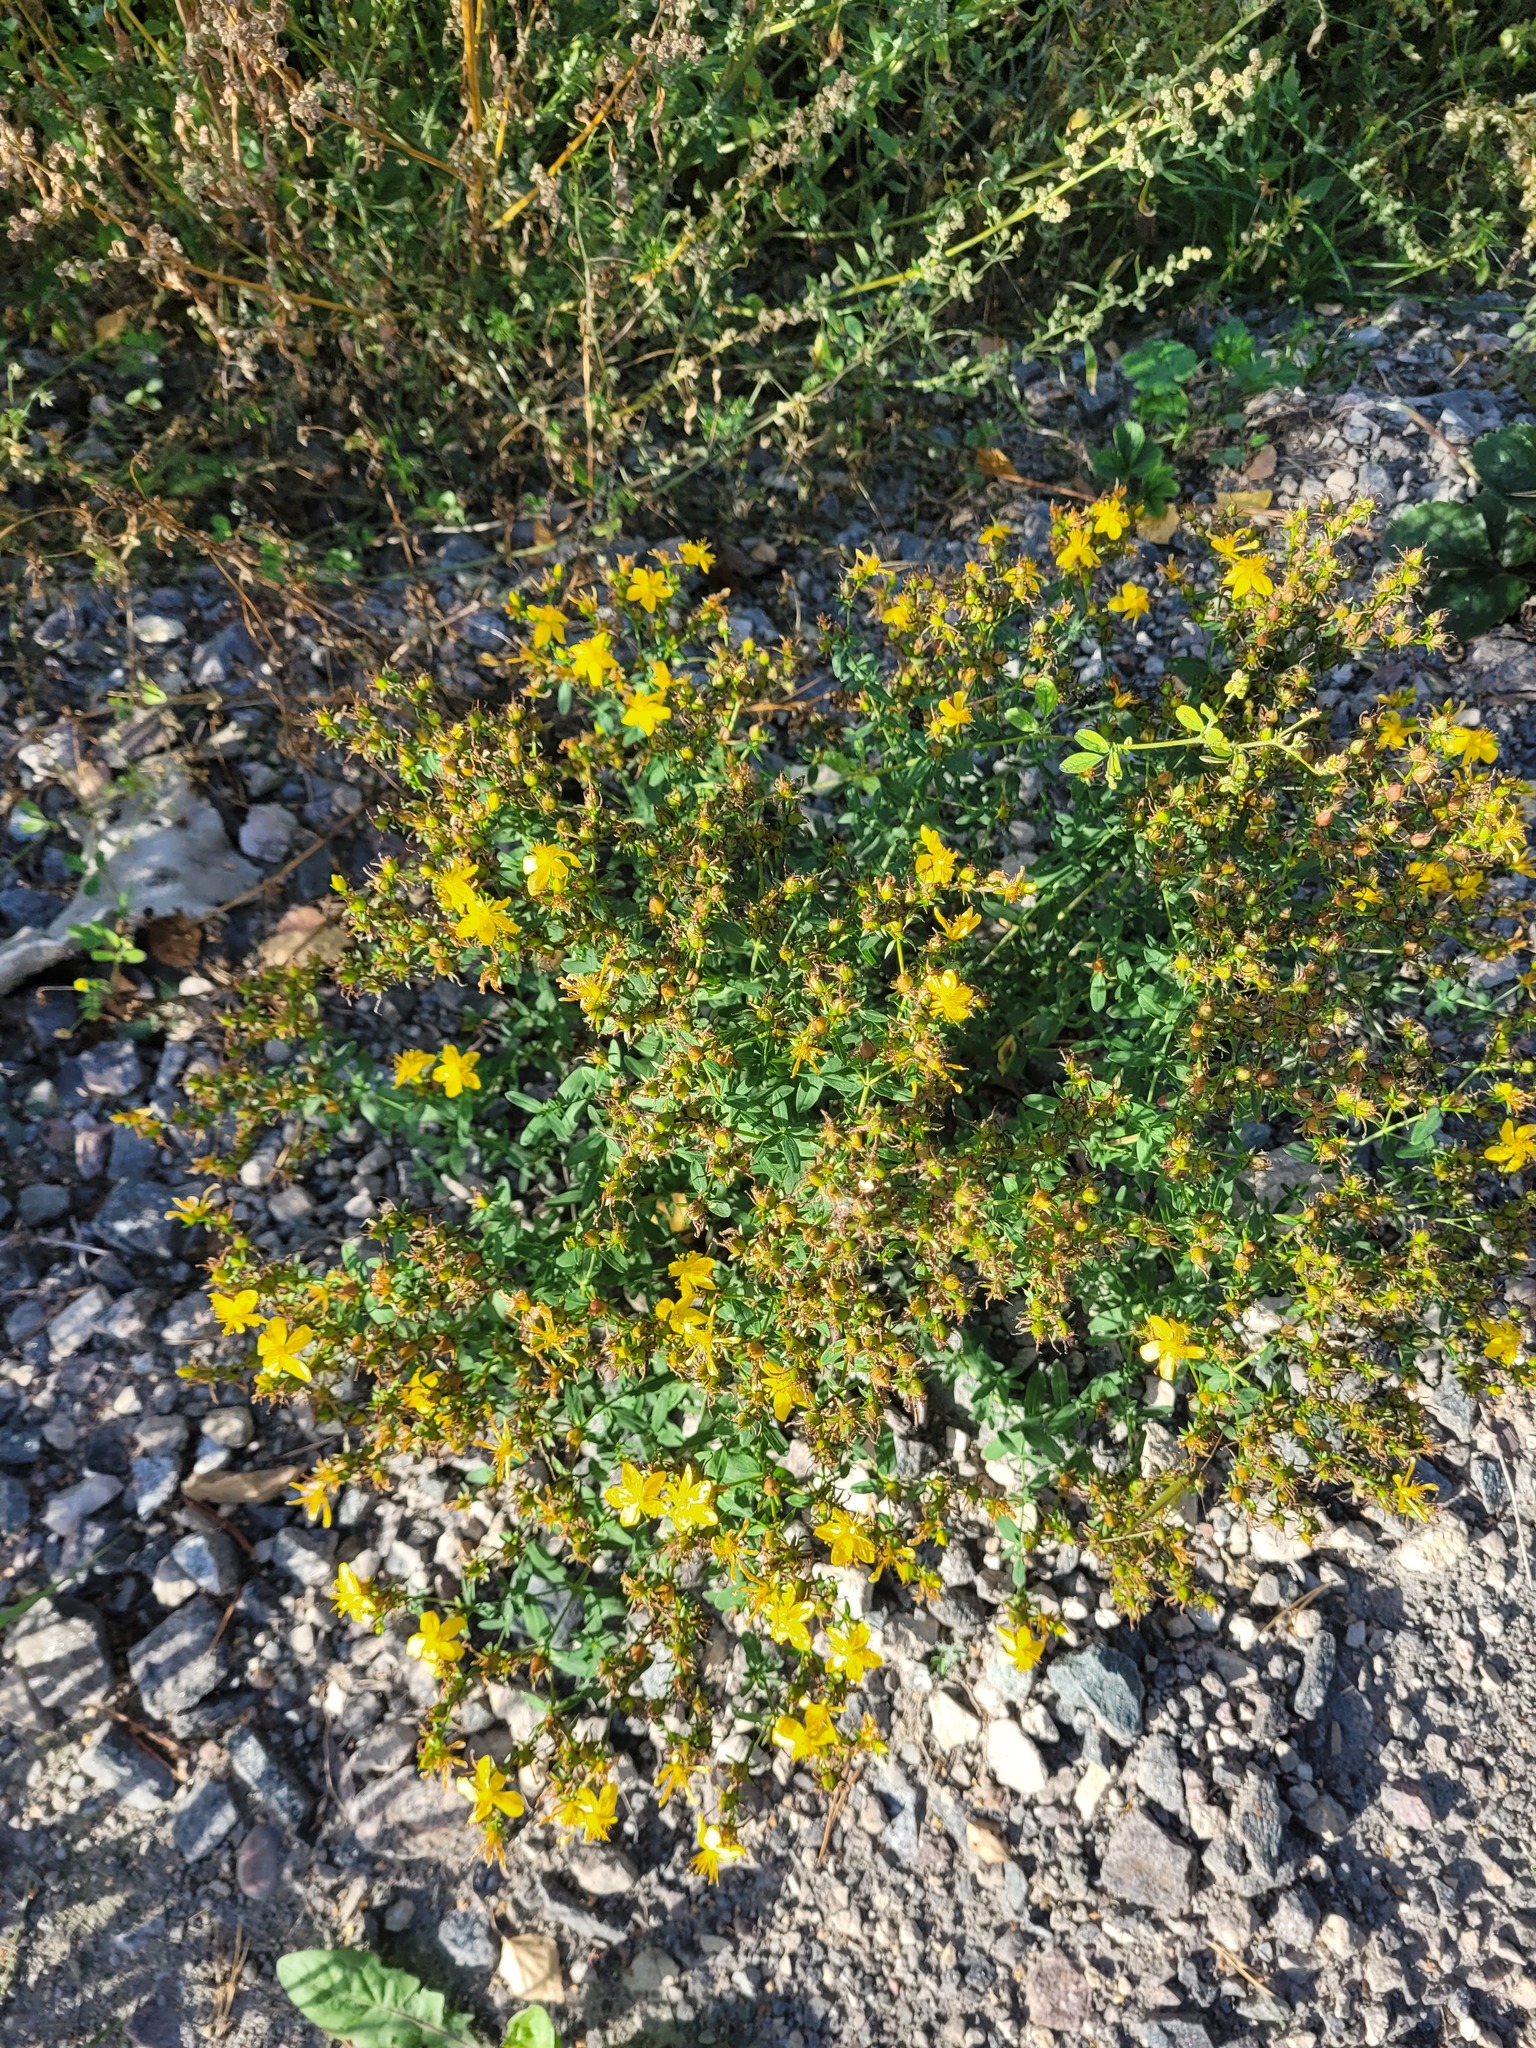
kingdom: Plantae
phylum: Tracheophyta
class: Magnoliopsida
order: Malpighiales
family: Hypericaceae
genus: Hypericum
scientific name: Hypericum perforatum
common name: Common st. johnswort
